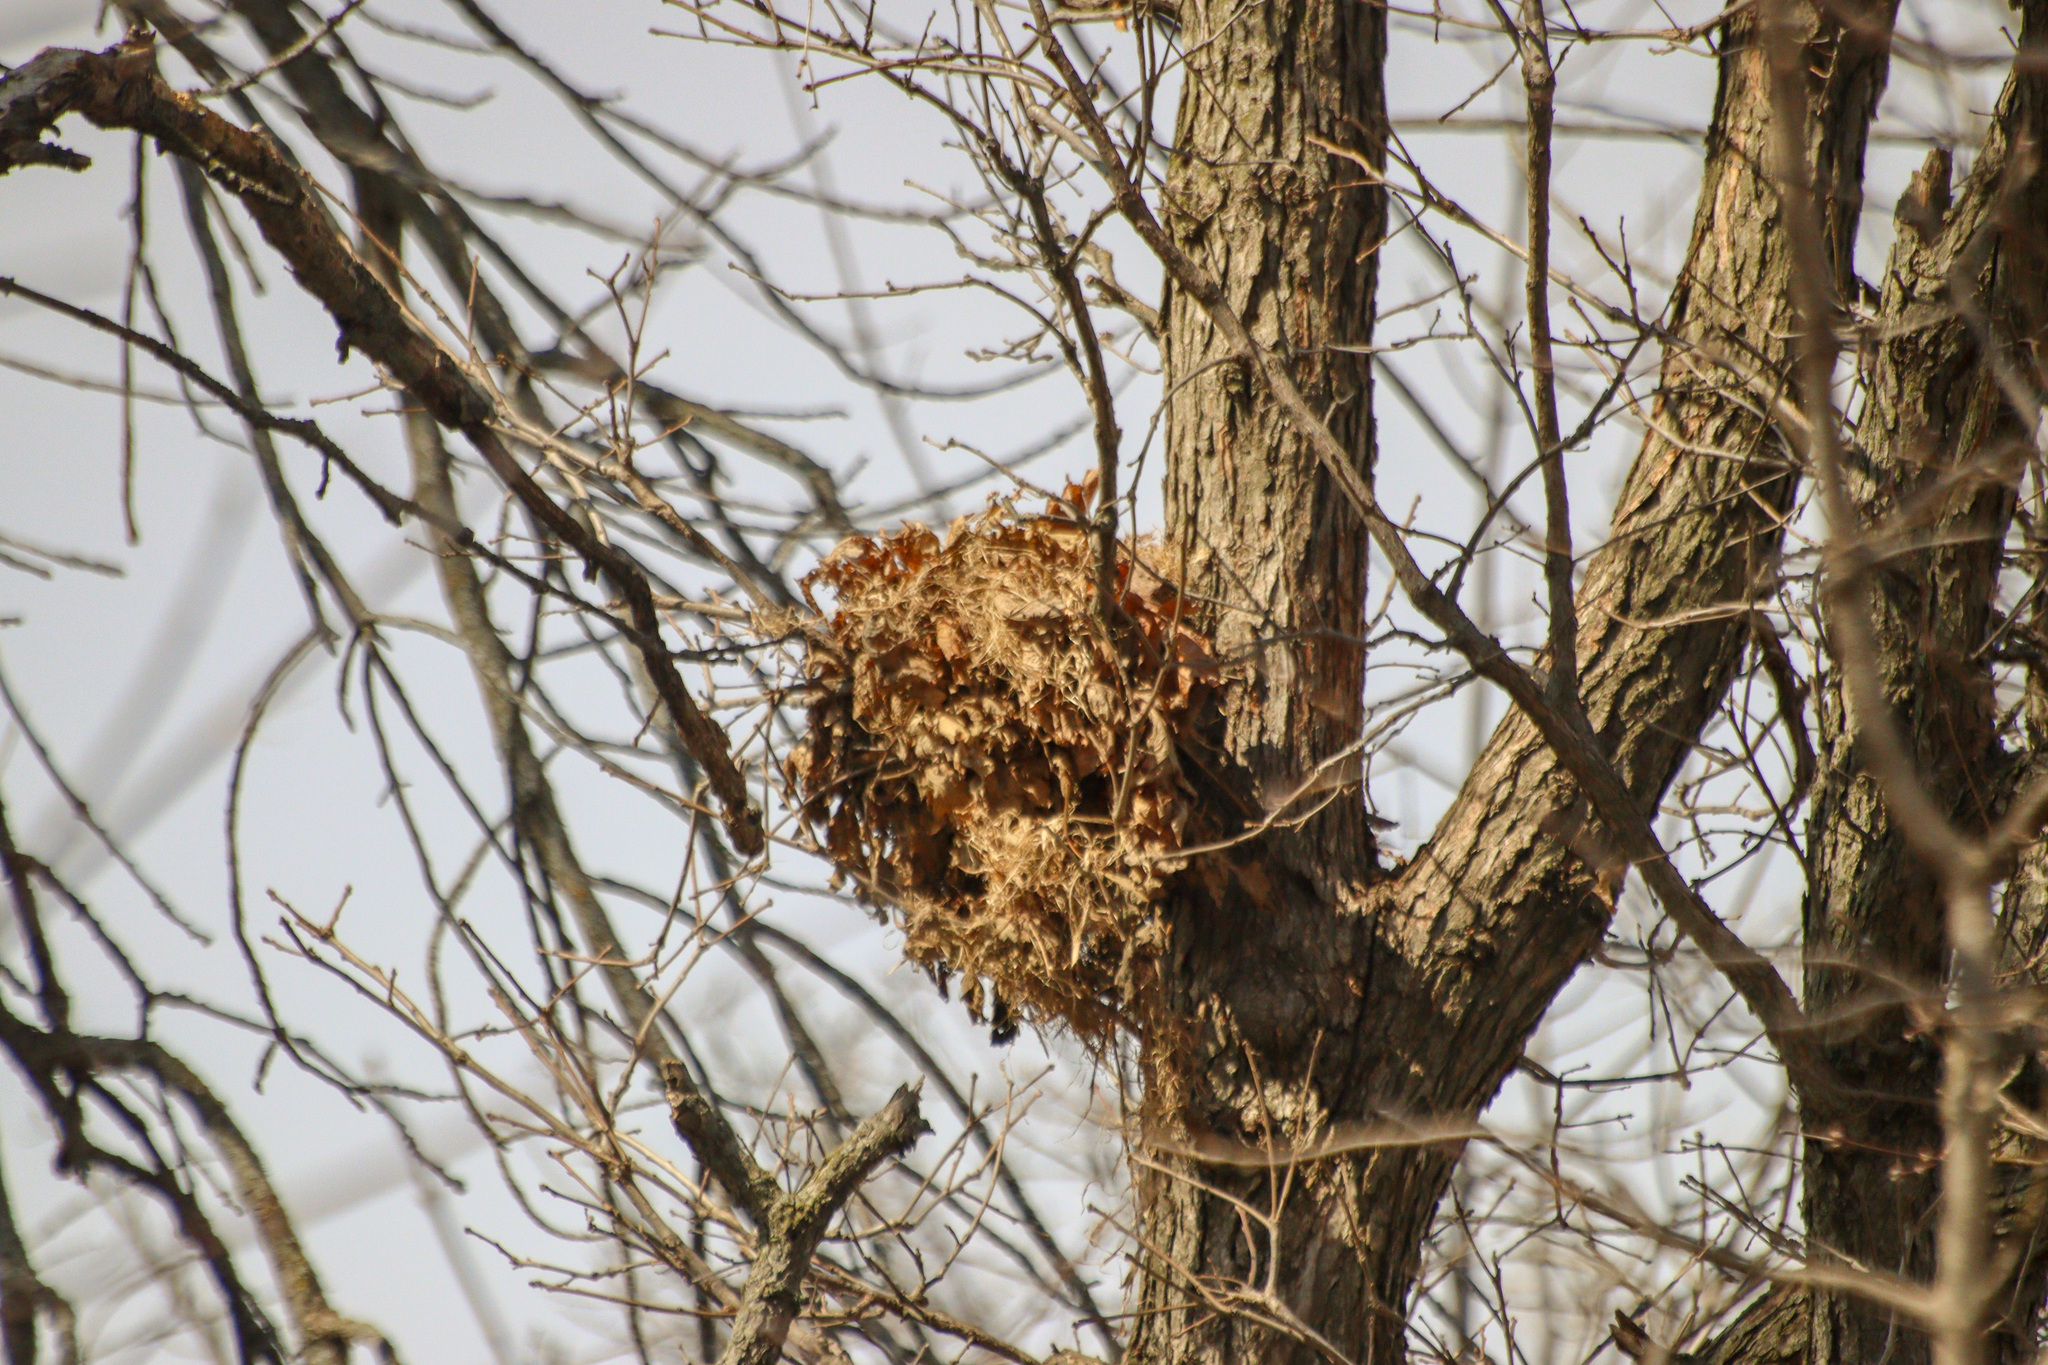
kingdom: Animalia
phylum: Chordata
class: Mammalia
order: Rodentia
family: Sciuridae
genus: Sciurus
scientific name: Sciurus carolinensis
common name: Eastern gray squirrel
